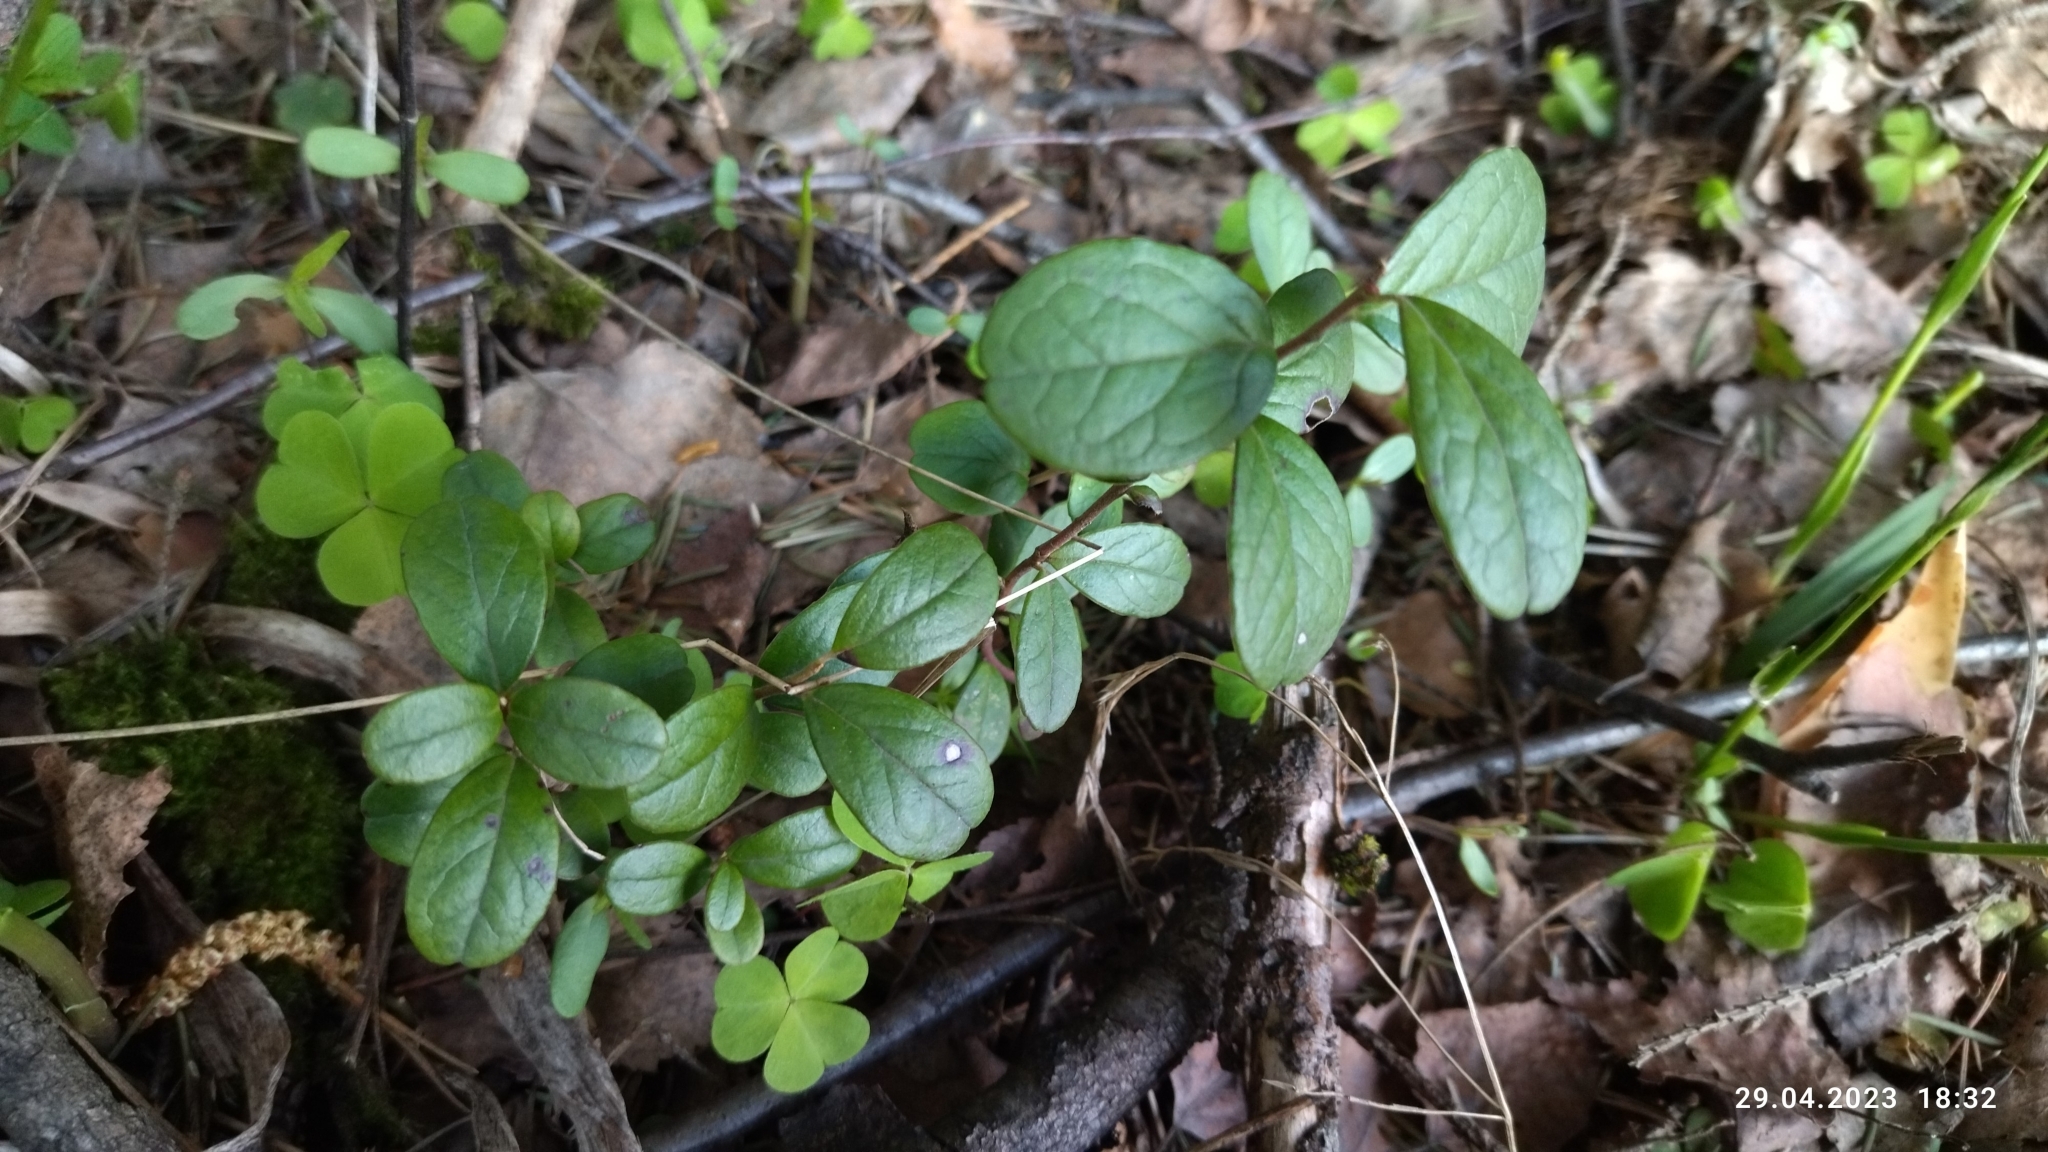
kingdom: Plantae
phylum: Tracheophyta
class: Magnoliopsida
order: Ericales
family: Ericaceae
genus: Vaccinium
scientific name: Vaccinium vitis-idaea
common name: Cowberry
